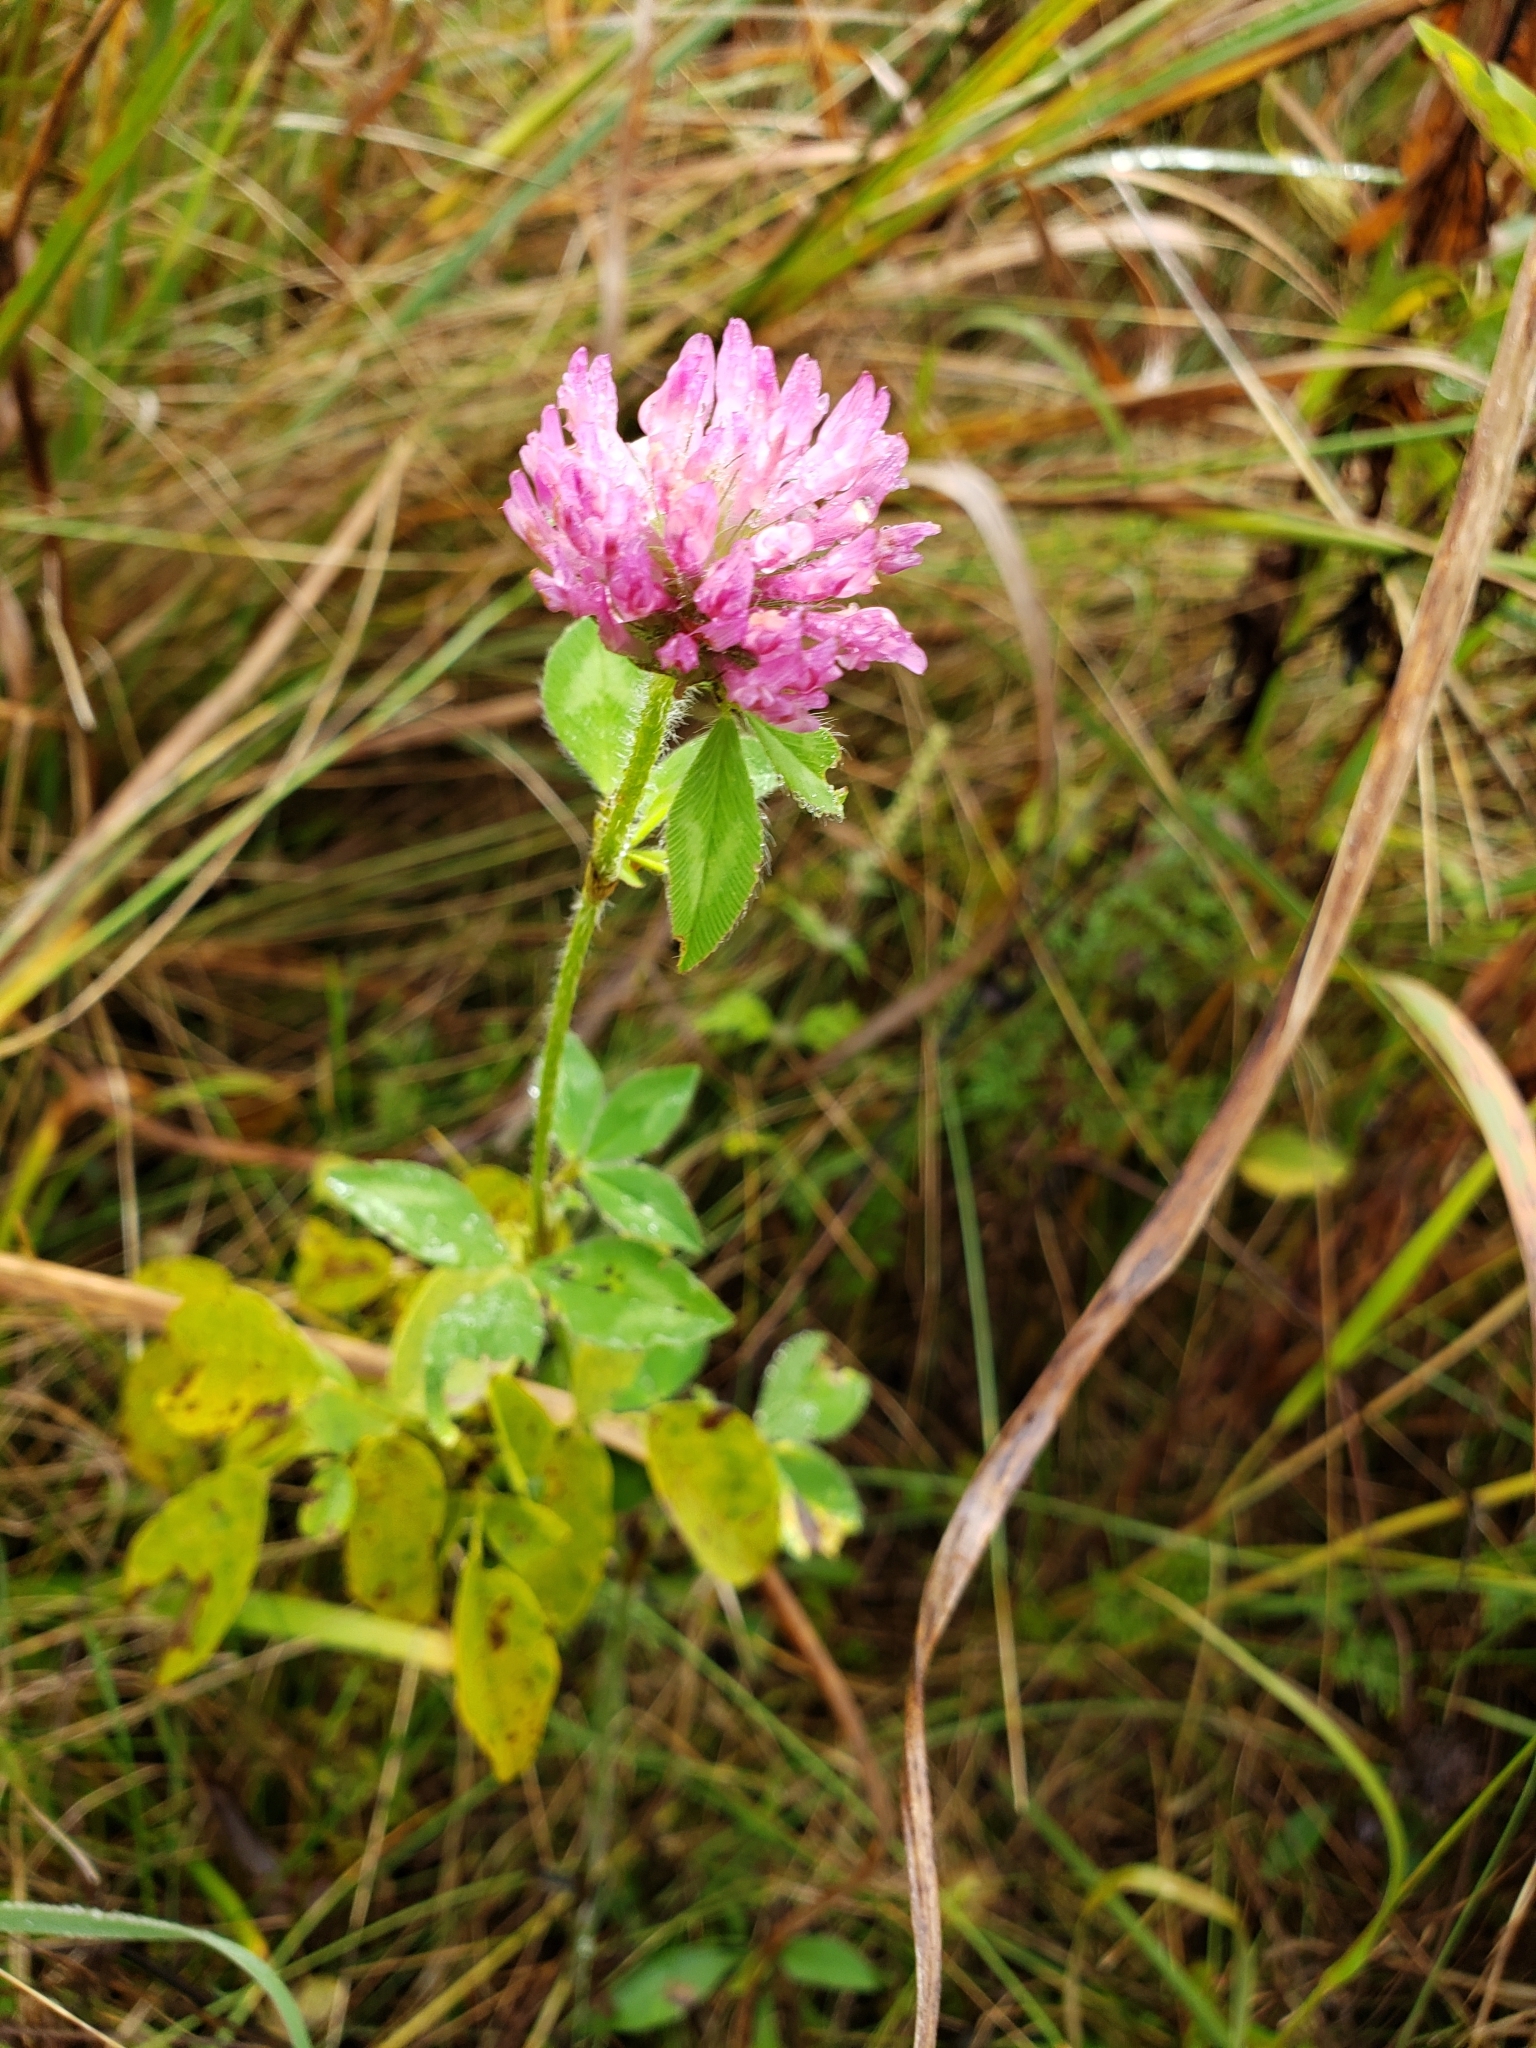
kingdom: Plantae
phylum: Tracheophyta
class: Magnoliopsida
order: Fabales
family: Fabaceae
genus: Trifolium
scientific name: Trifolium pratense
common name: Red clover
